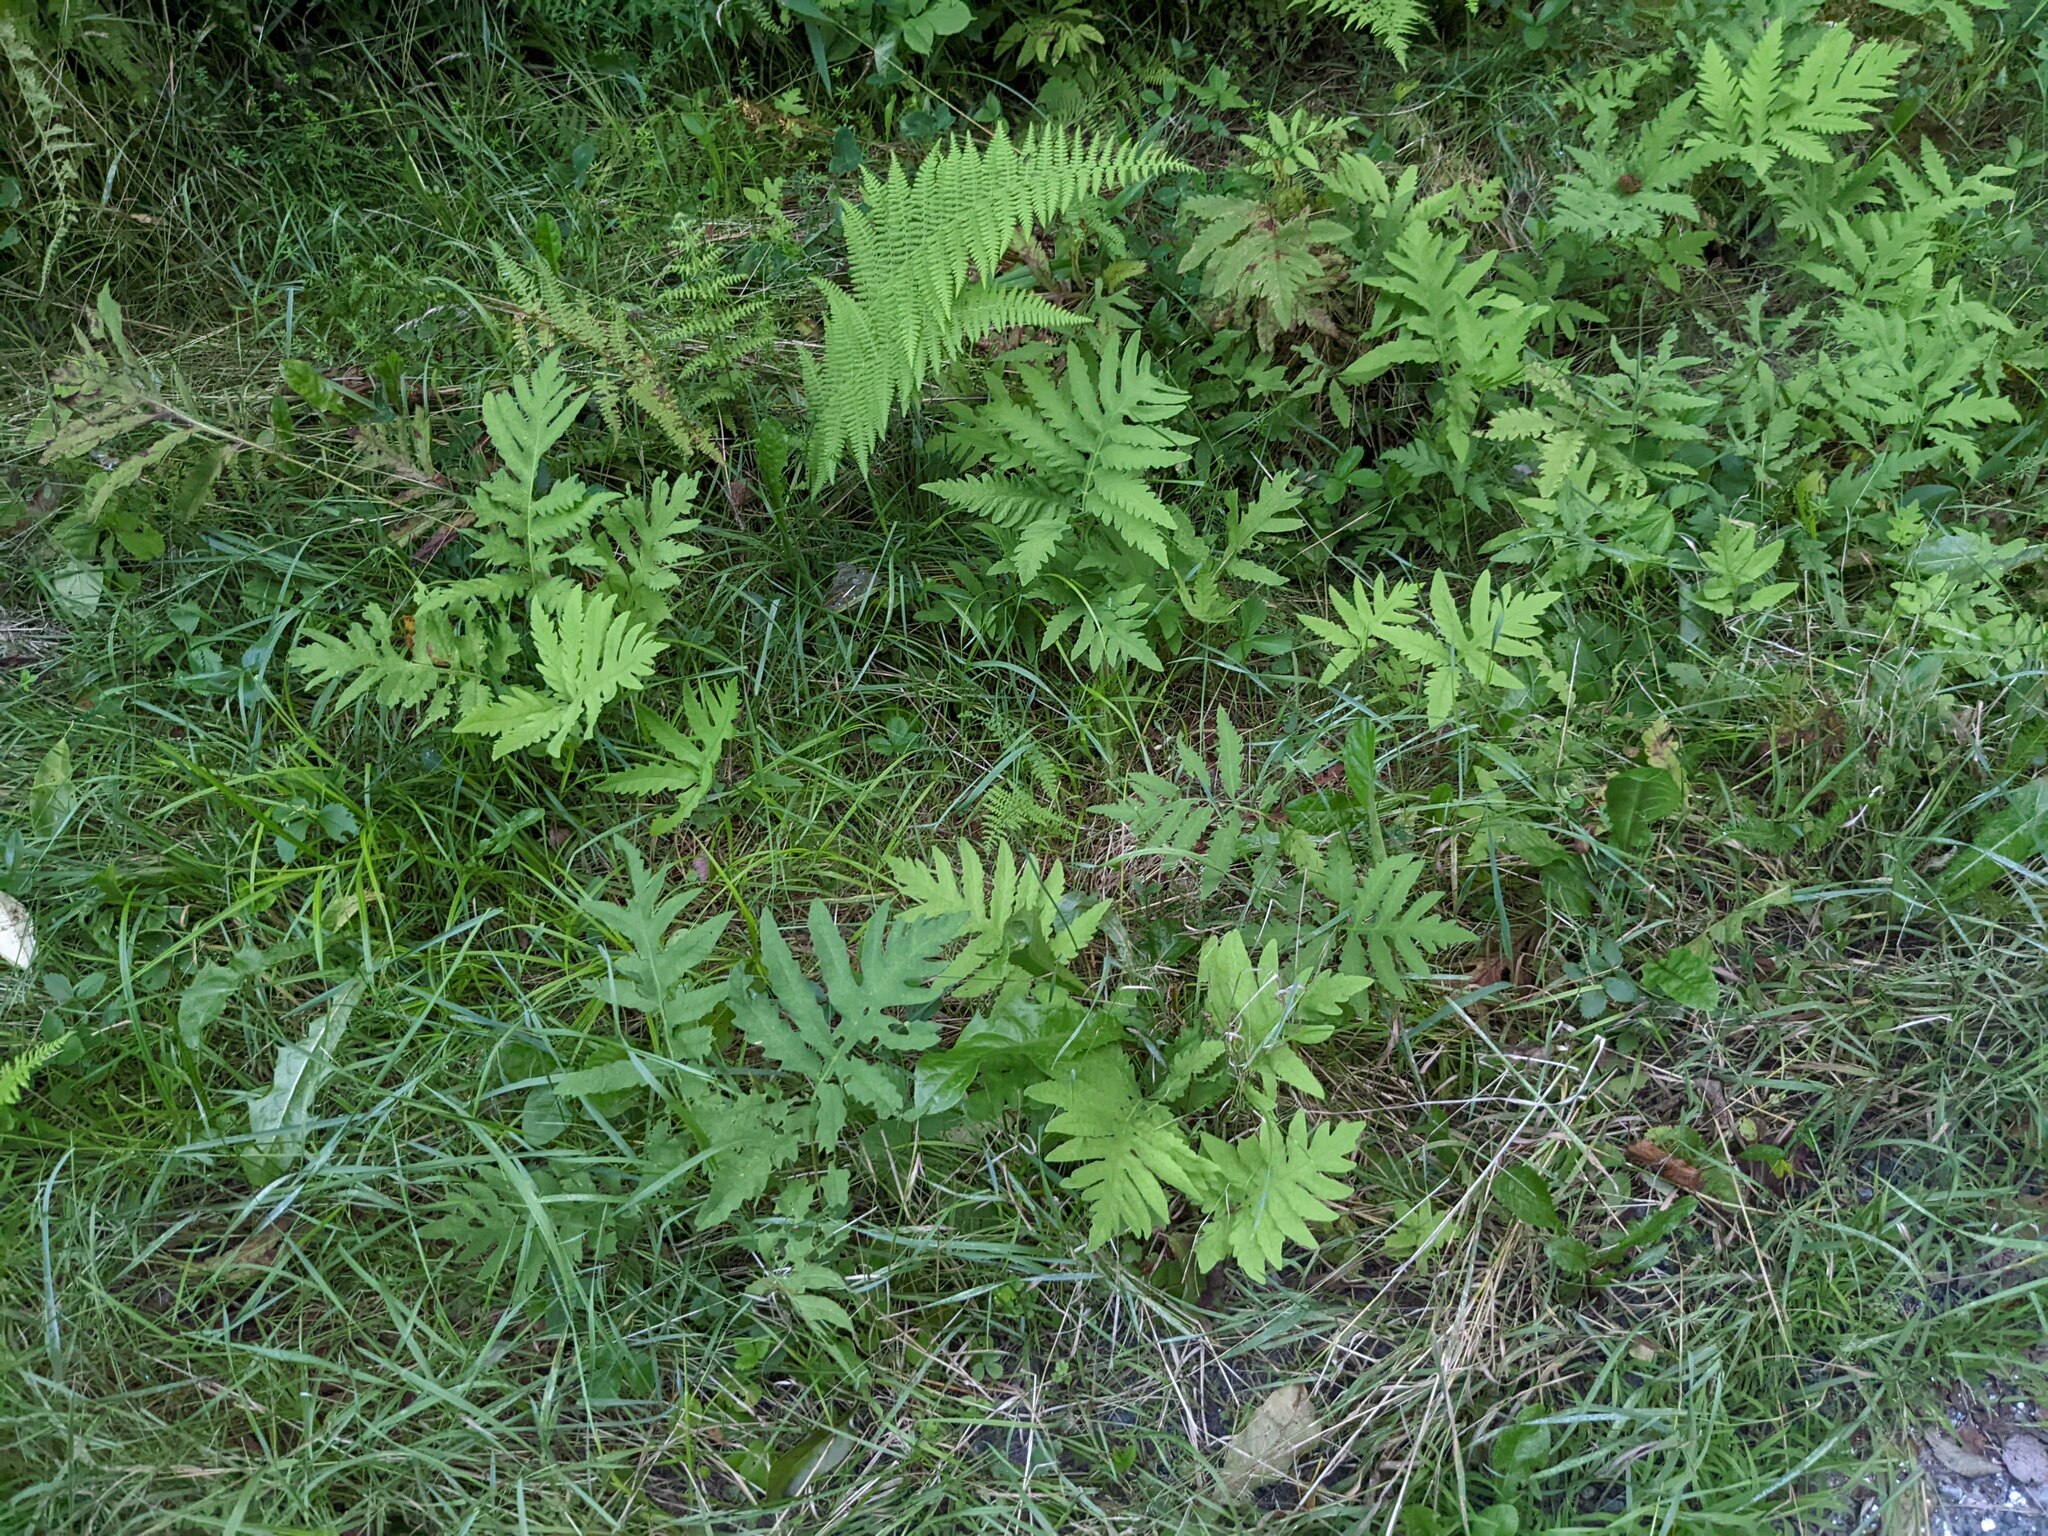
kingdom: Plantae
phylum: Tracheophyta
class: Polypodiopsida
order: Polypodiales
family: Onocleaceae
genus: Onoclea
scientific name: Onoclea sensibilis
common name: Sensitive fern
